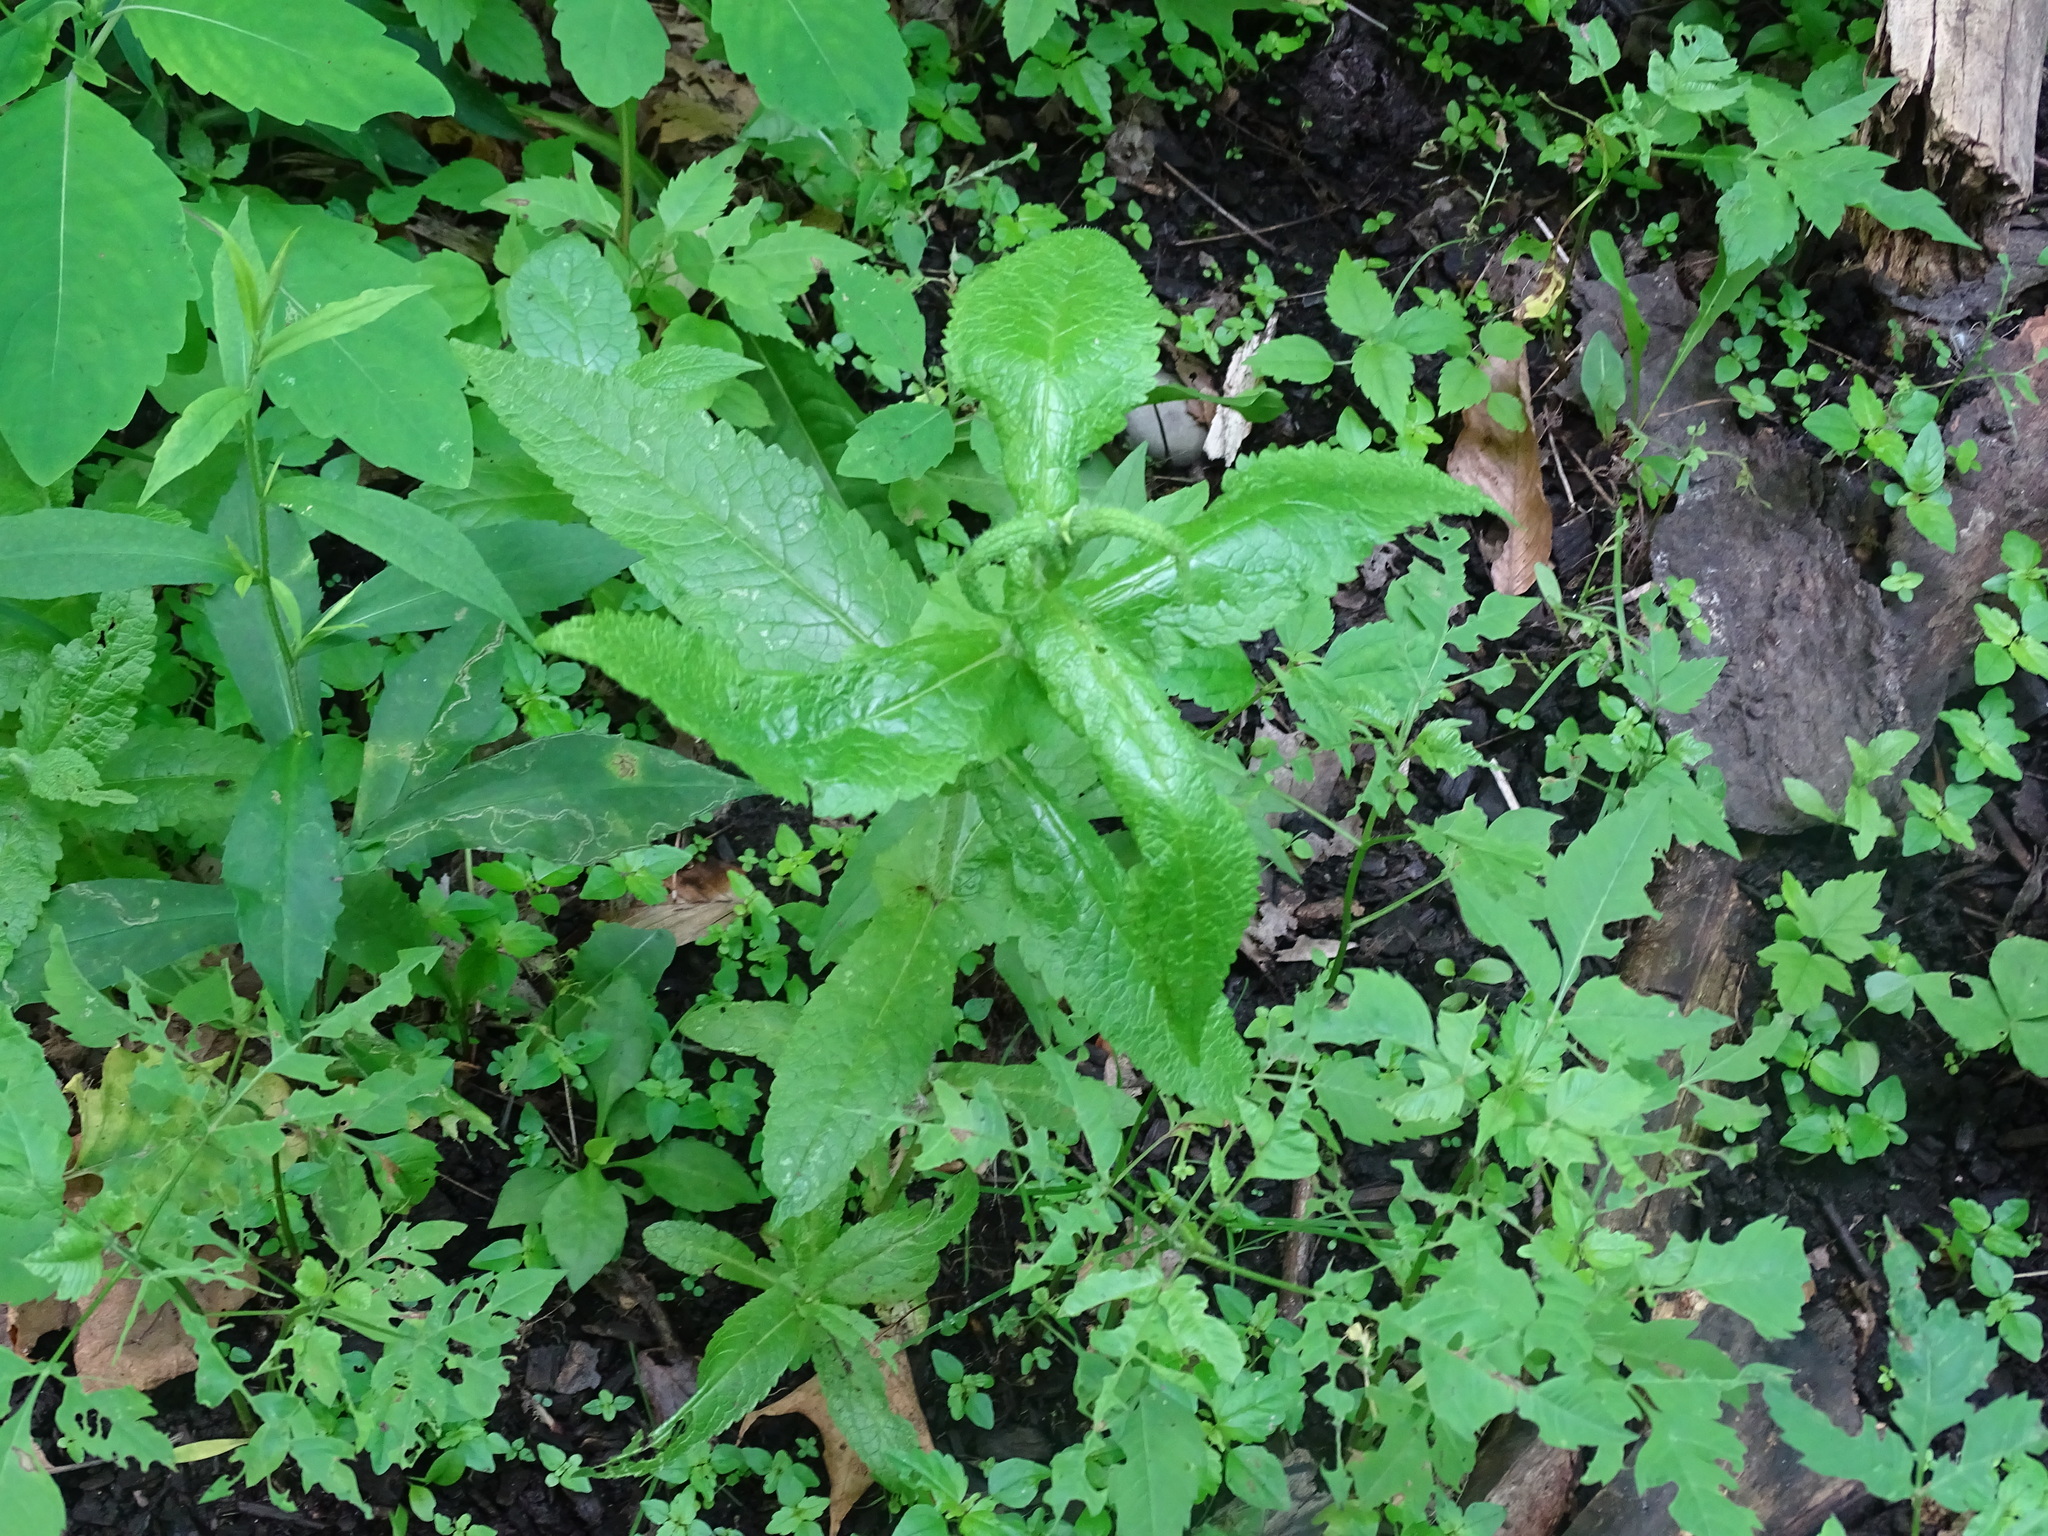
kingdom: Plantae
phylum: Tracheophyta
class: Magnoliopsida
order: Asterales
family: Asteraceae
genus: Eupatorium
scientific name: Eupatorium perfoliatum
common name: Boneset
